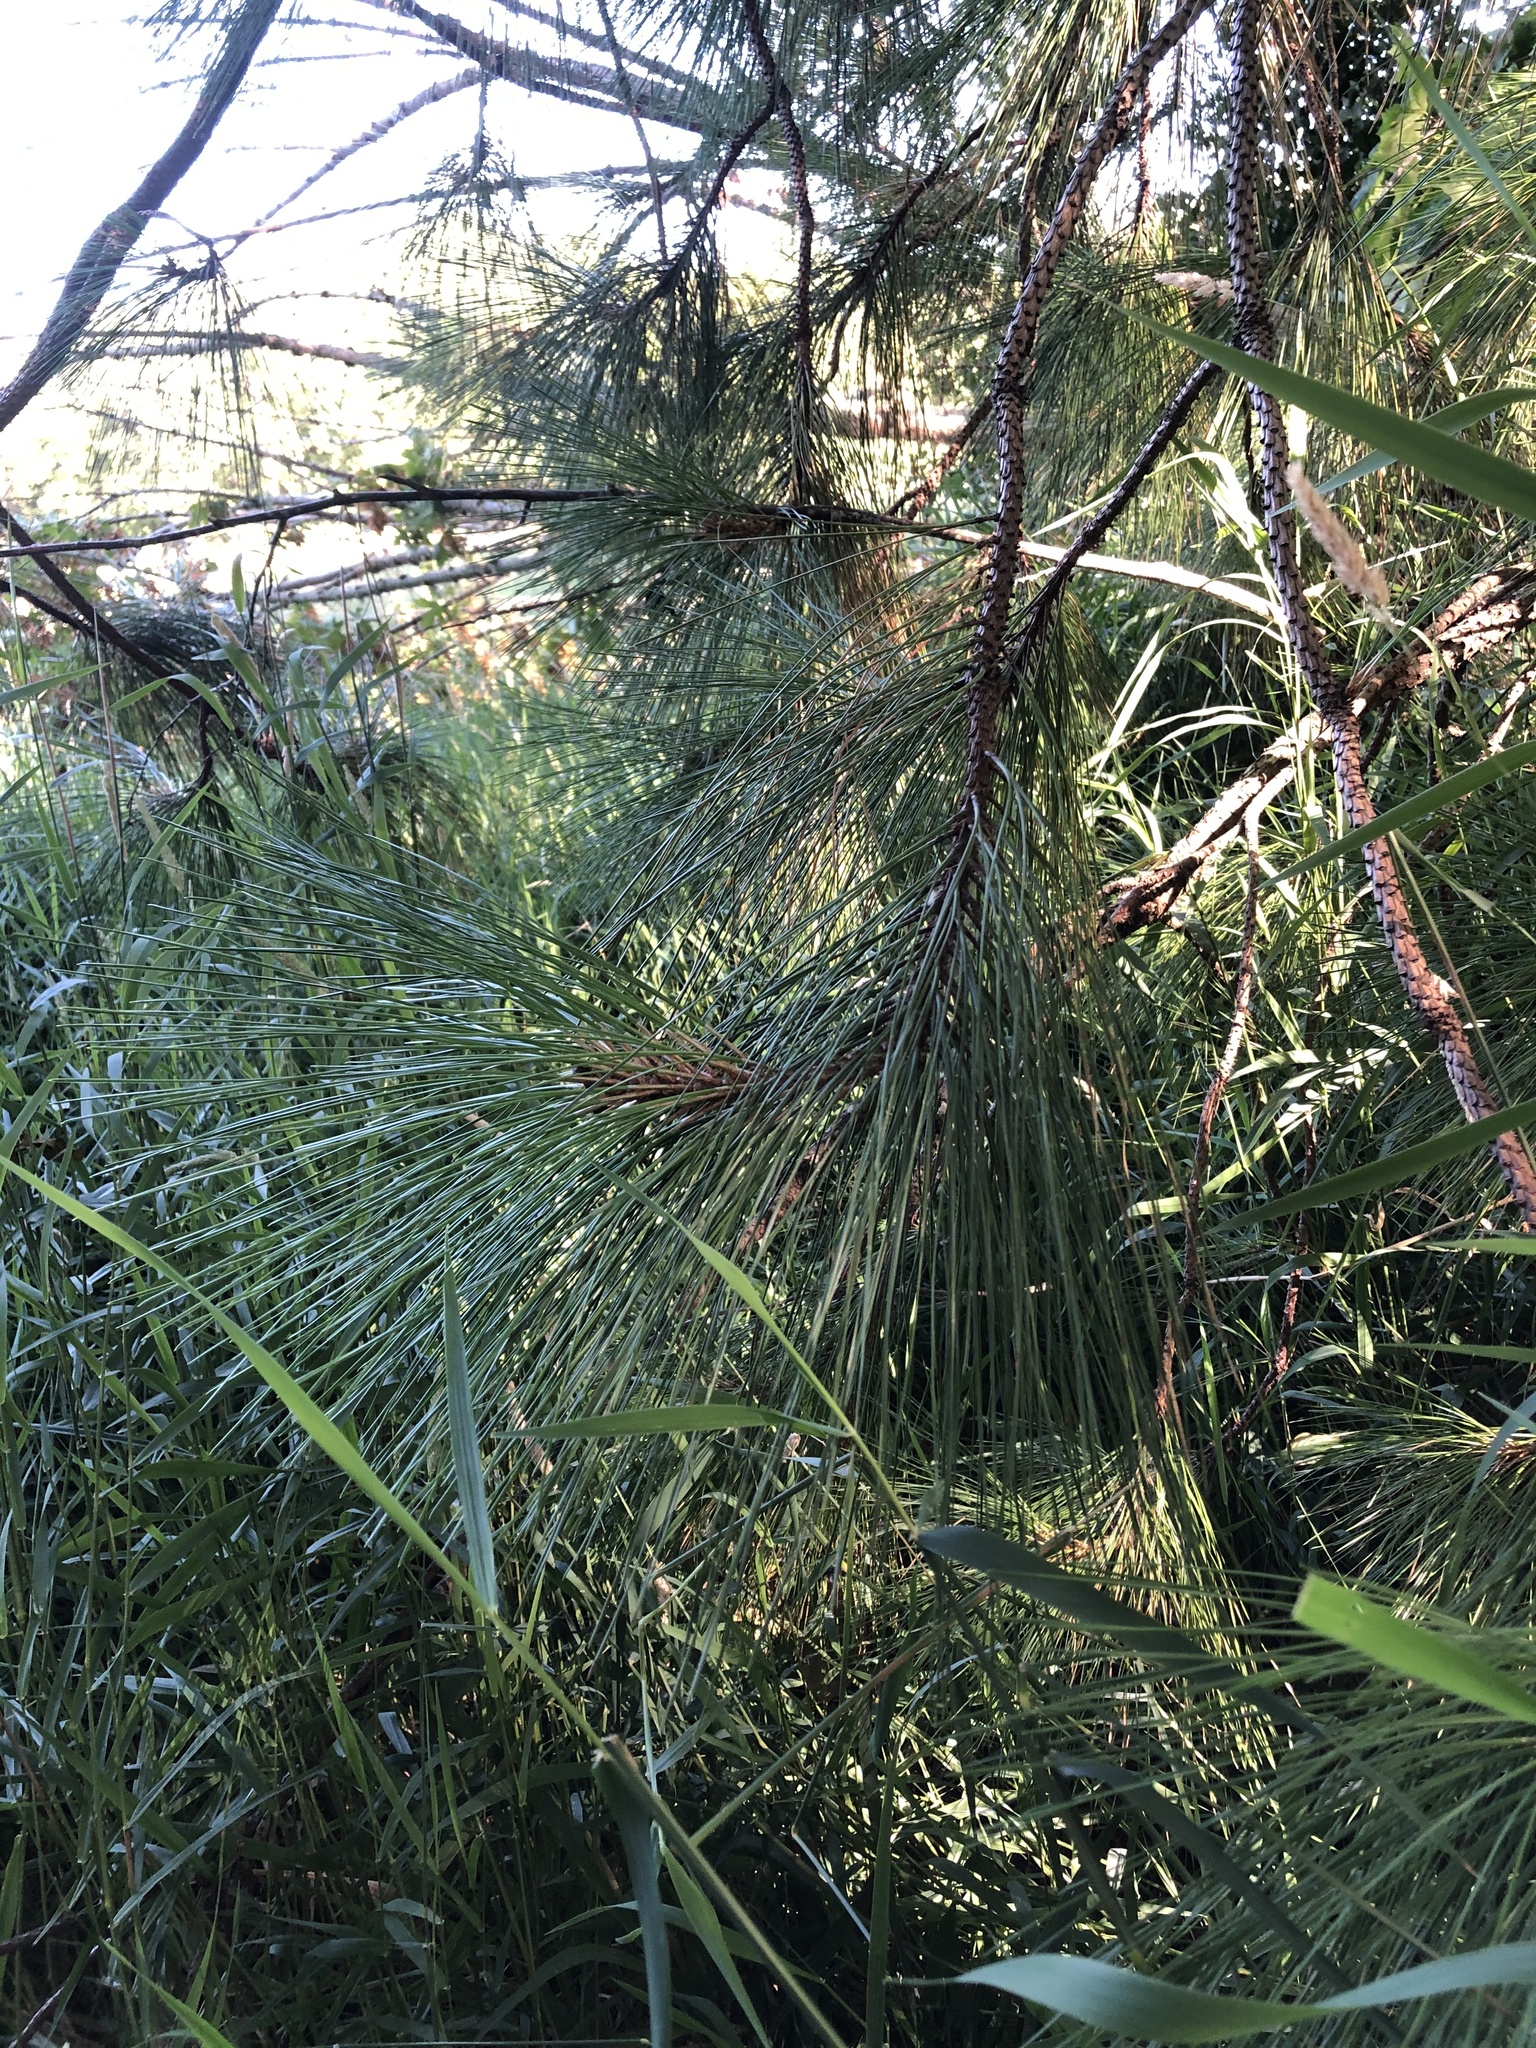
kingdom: Plantae
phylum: Tracheophyta
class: Pinopsida
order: Pinales
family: Pinaceae
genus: Pinus
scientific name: Pinus ponderosa
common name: Western yellow-pine
